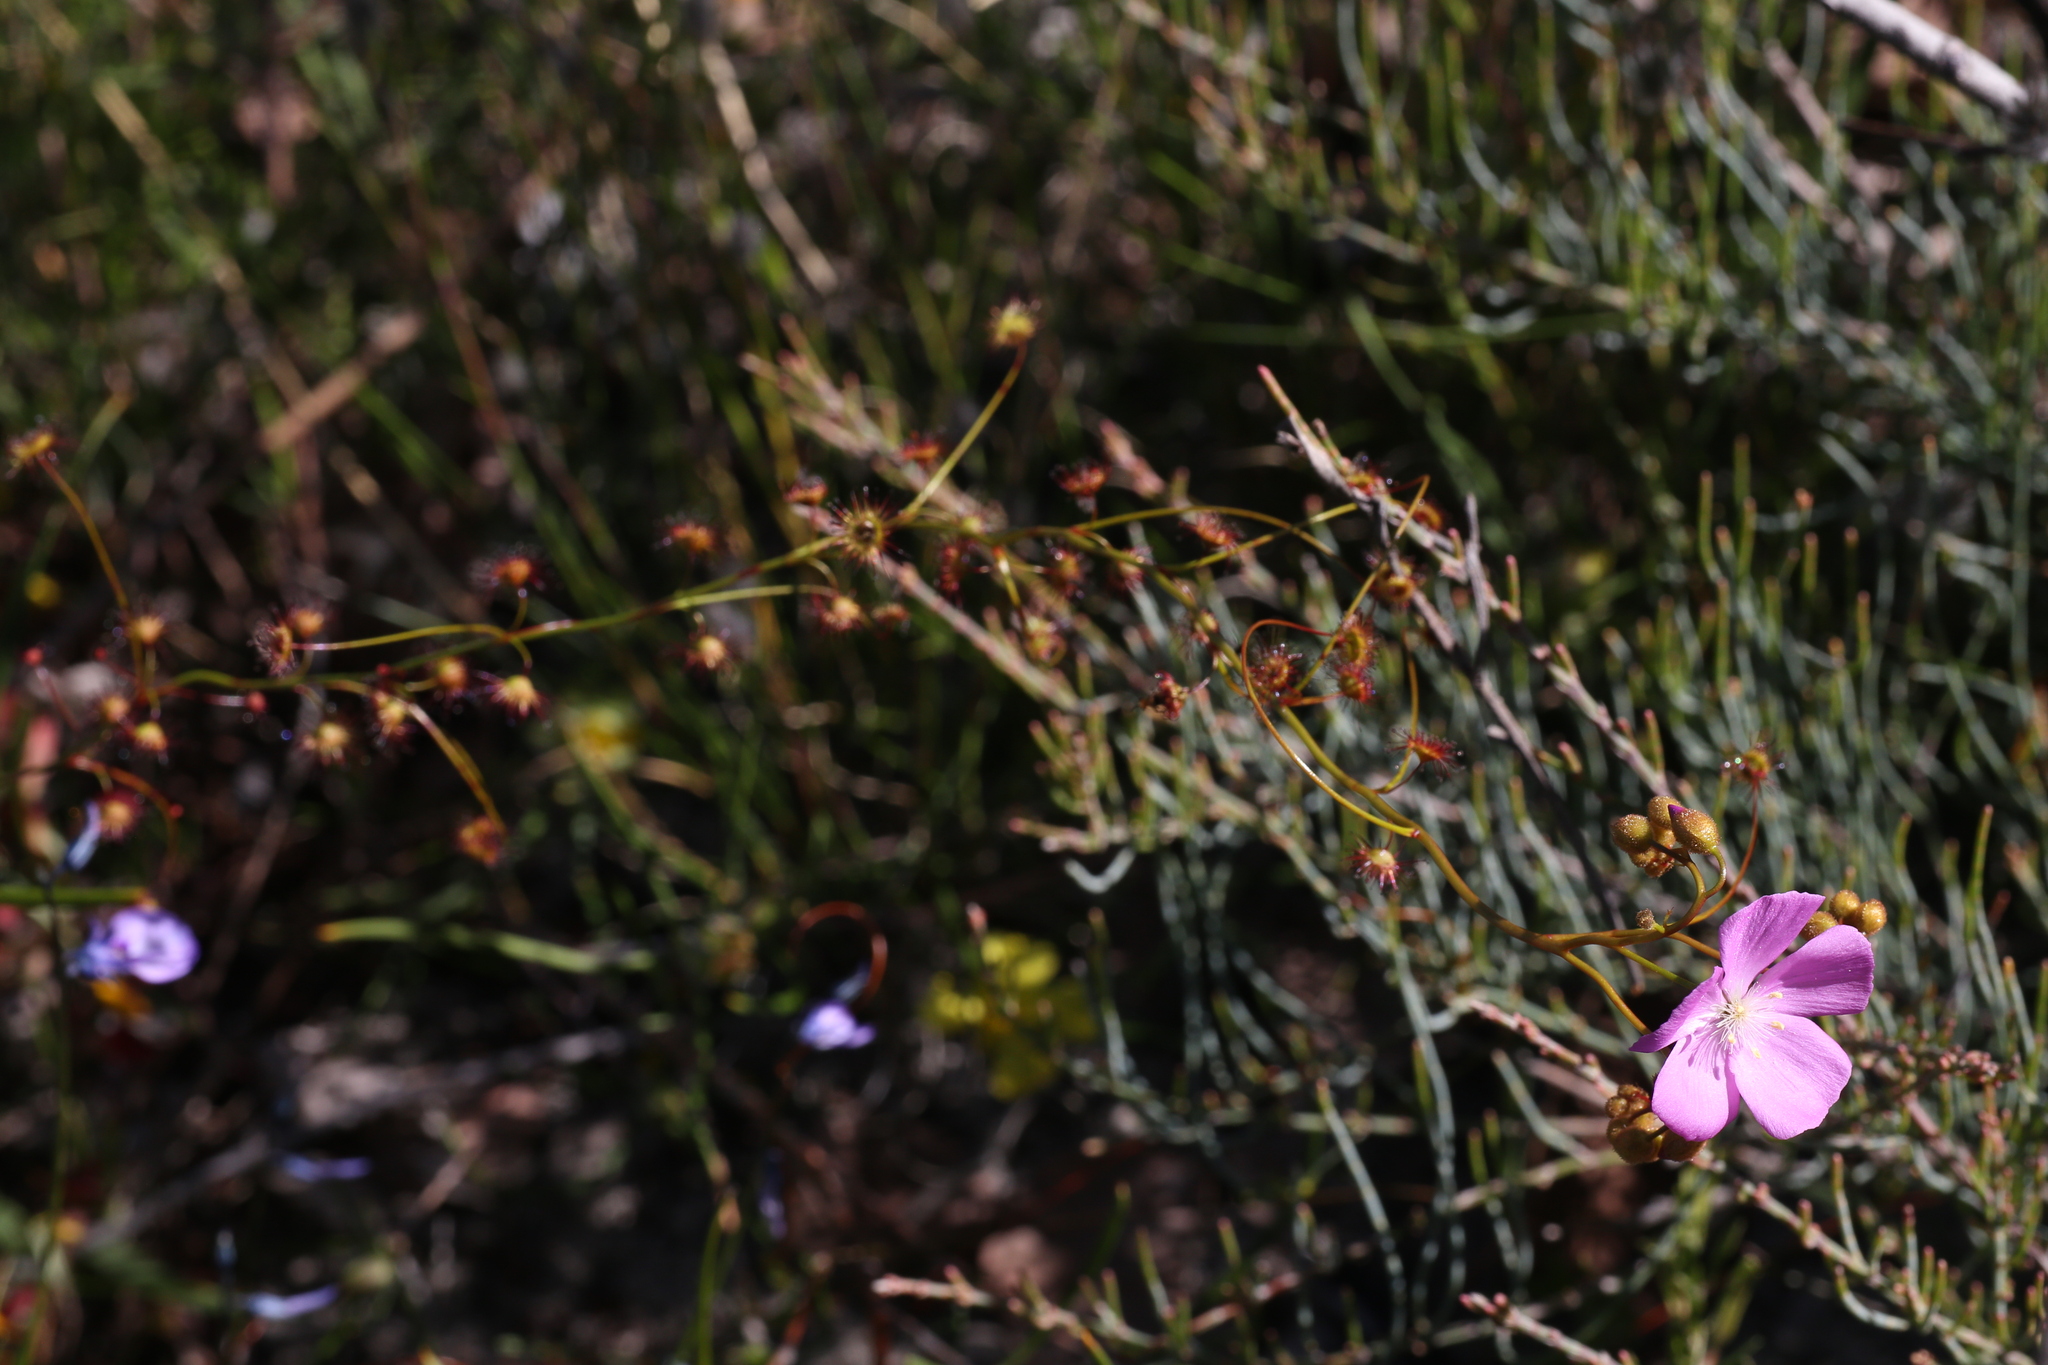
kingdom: Plantae
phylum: Tracheophyta
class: Magnoliopsida
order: Caryophyllales
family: Droseraceae
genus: Drosera
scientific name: Drosera
